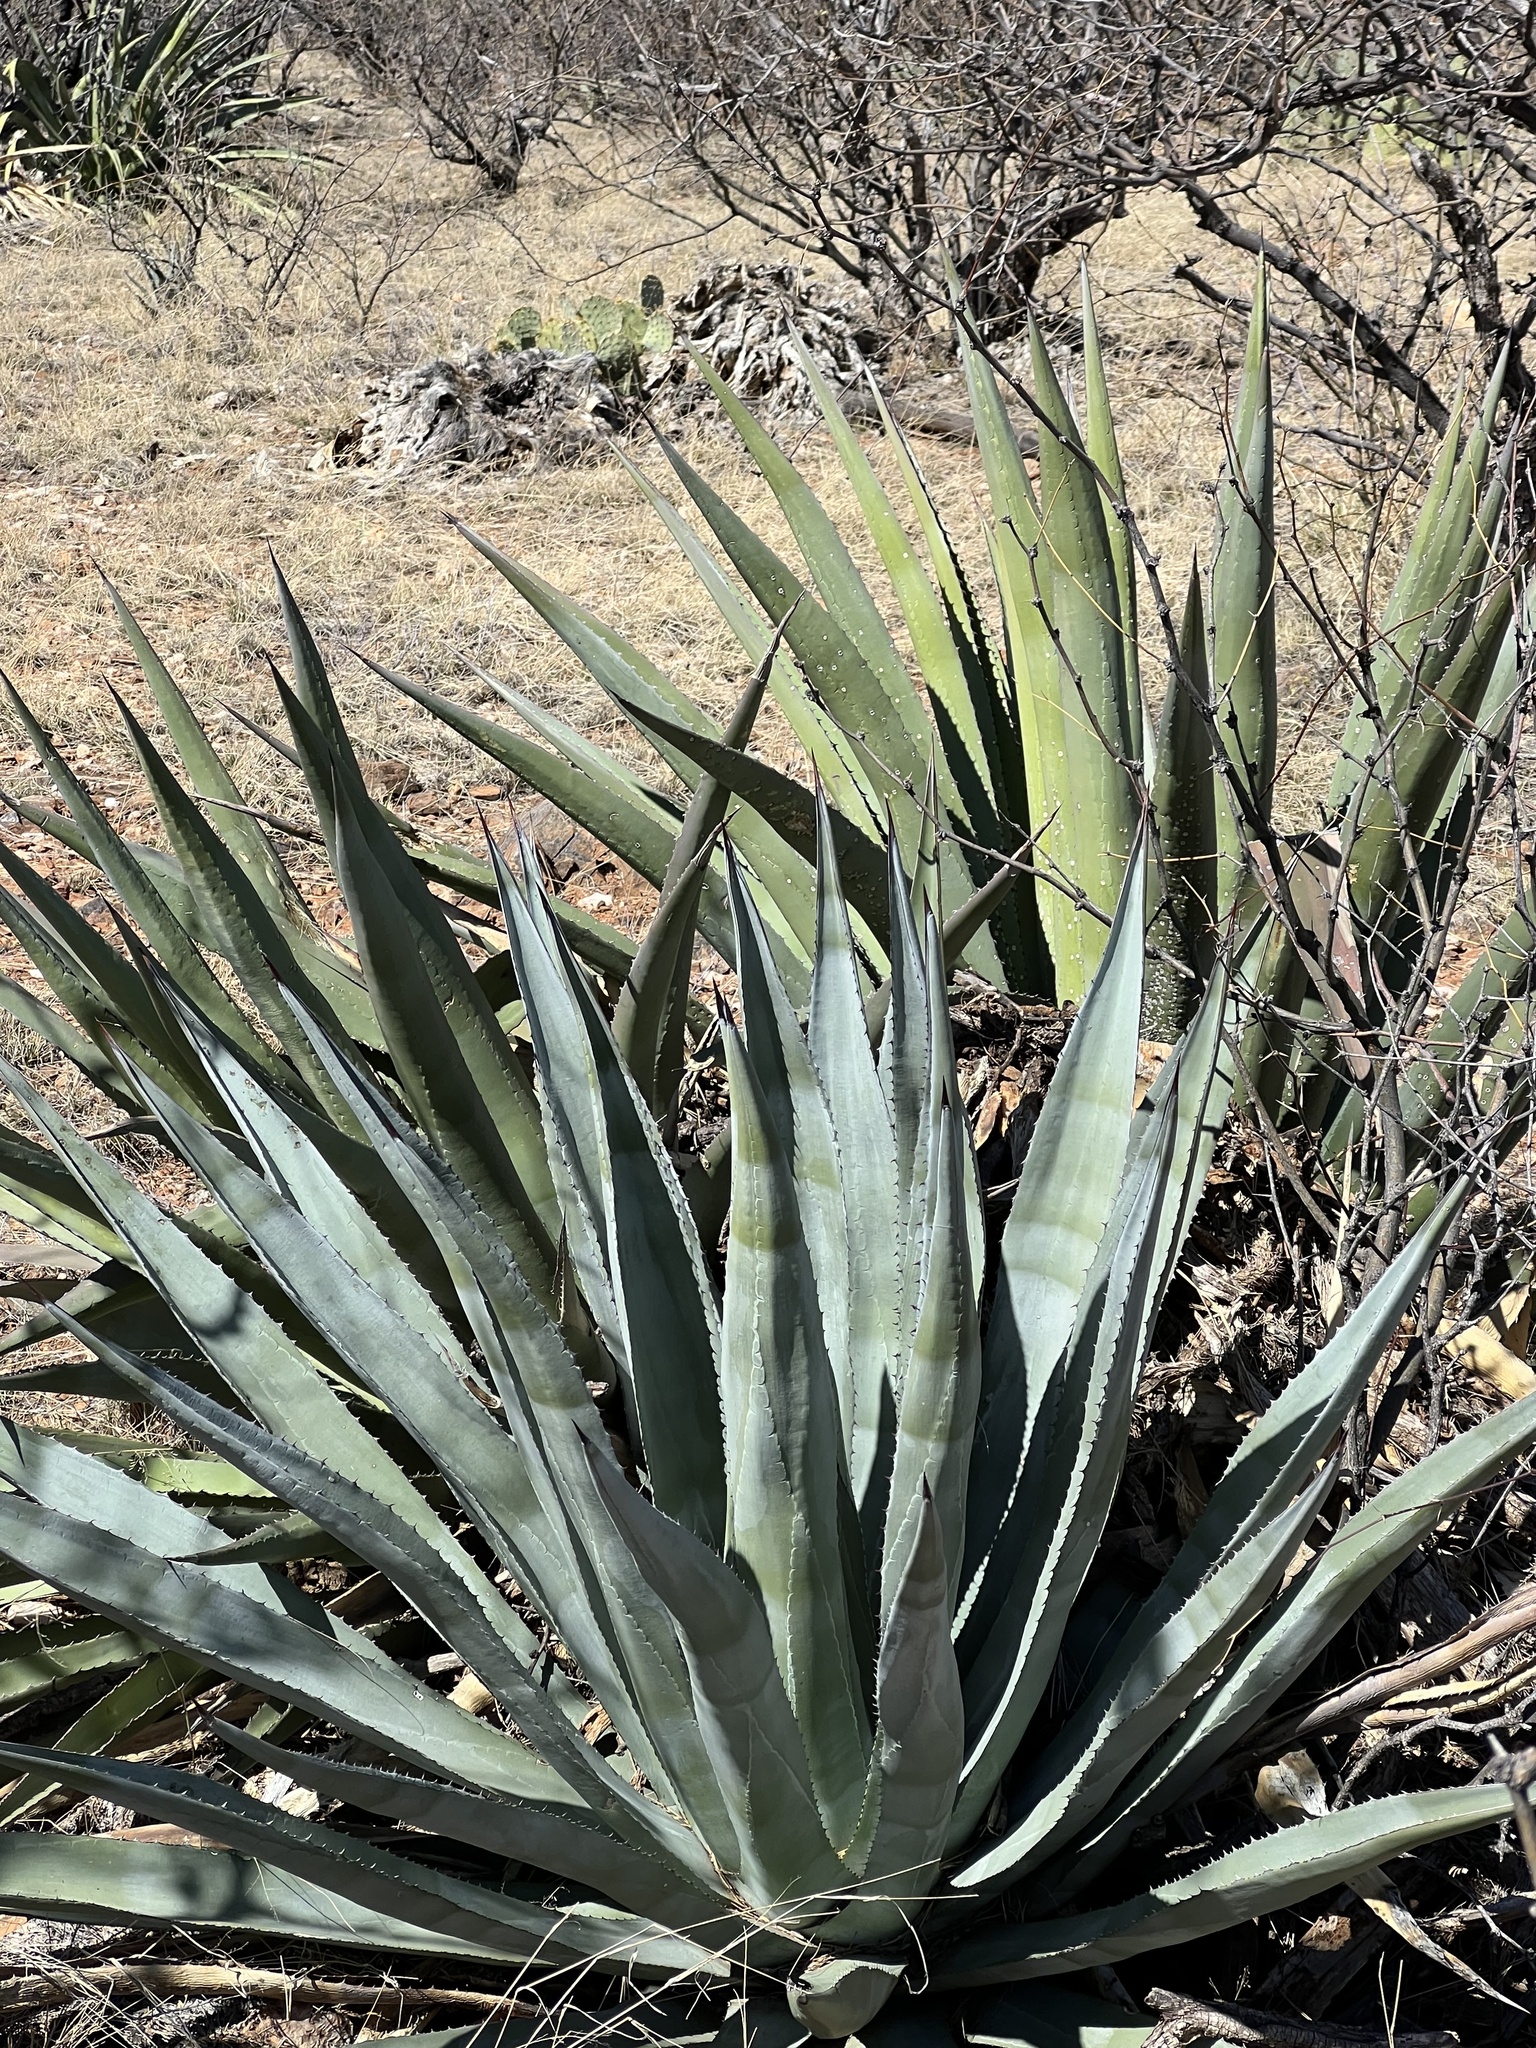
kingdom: Plantae
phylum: Tracheophyta
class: Liliopsida
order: Asparagales
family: Asparagaceae
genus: Agave
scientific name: Agave palmeri
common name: Palmer agave
